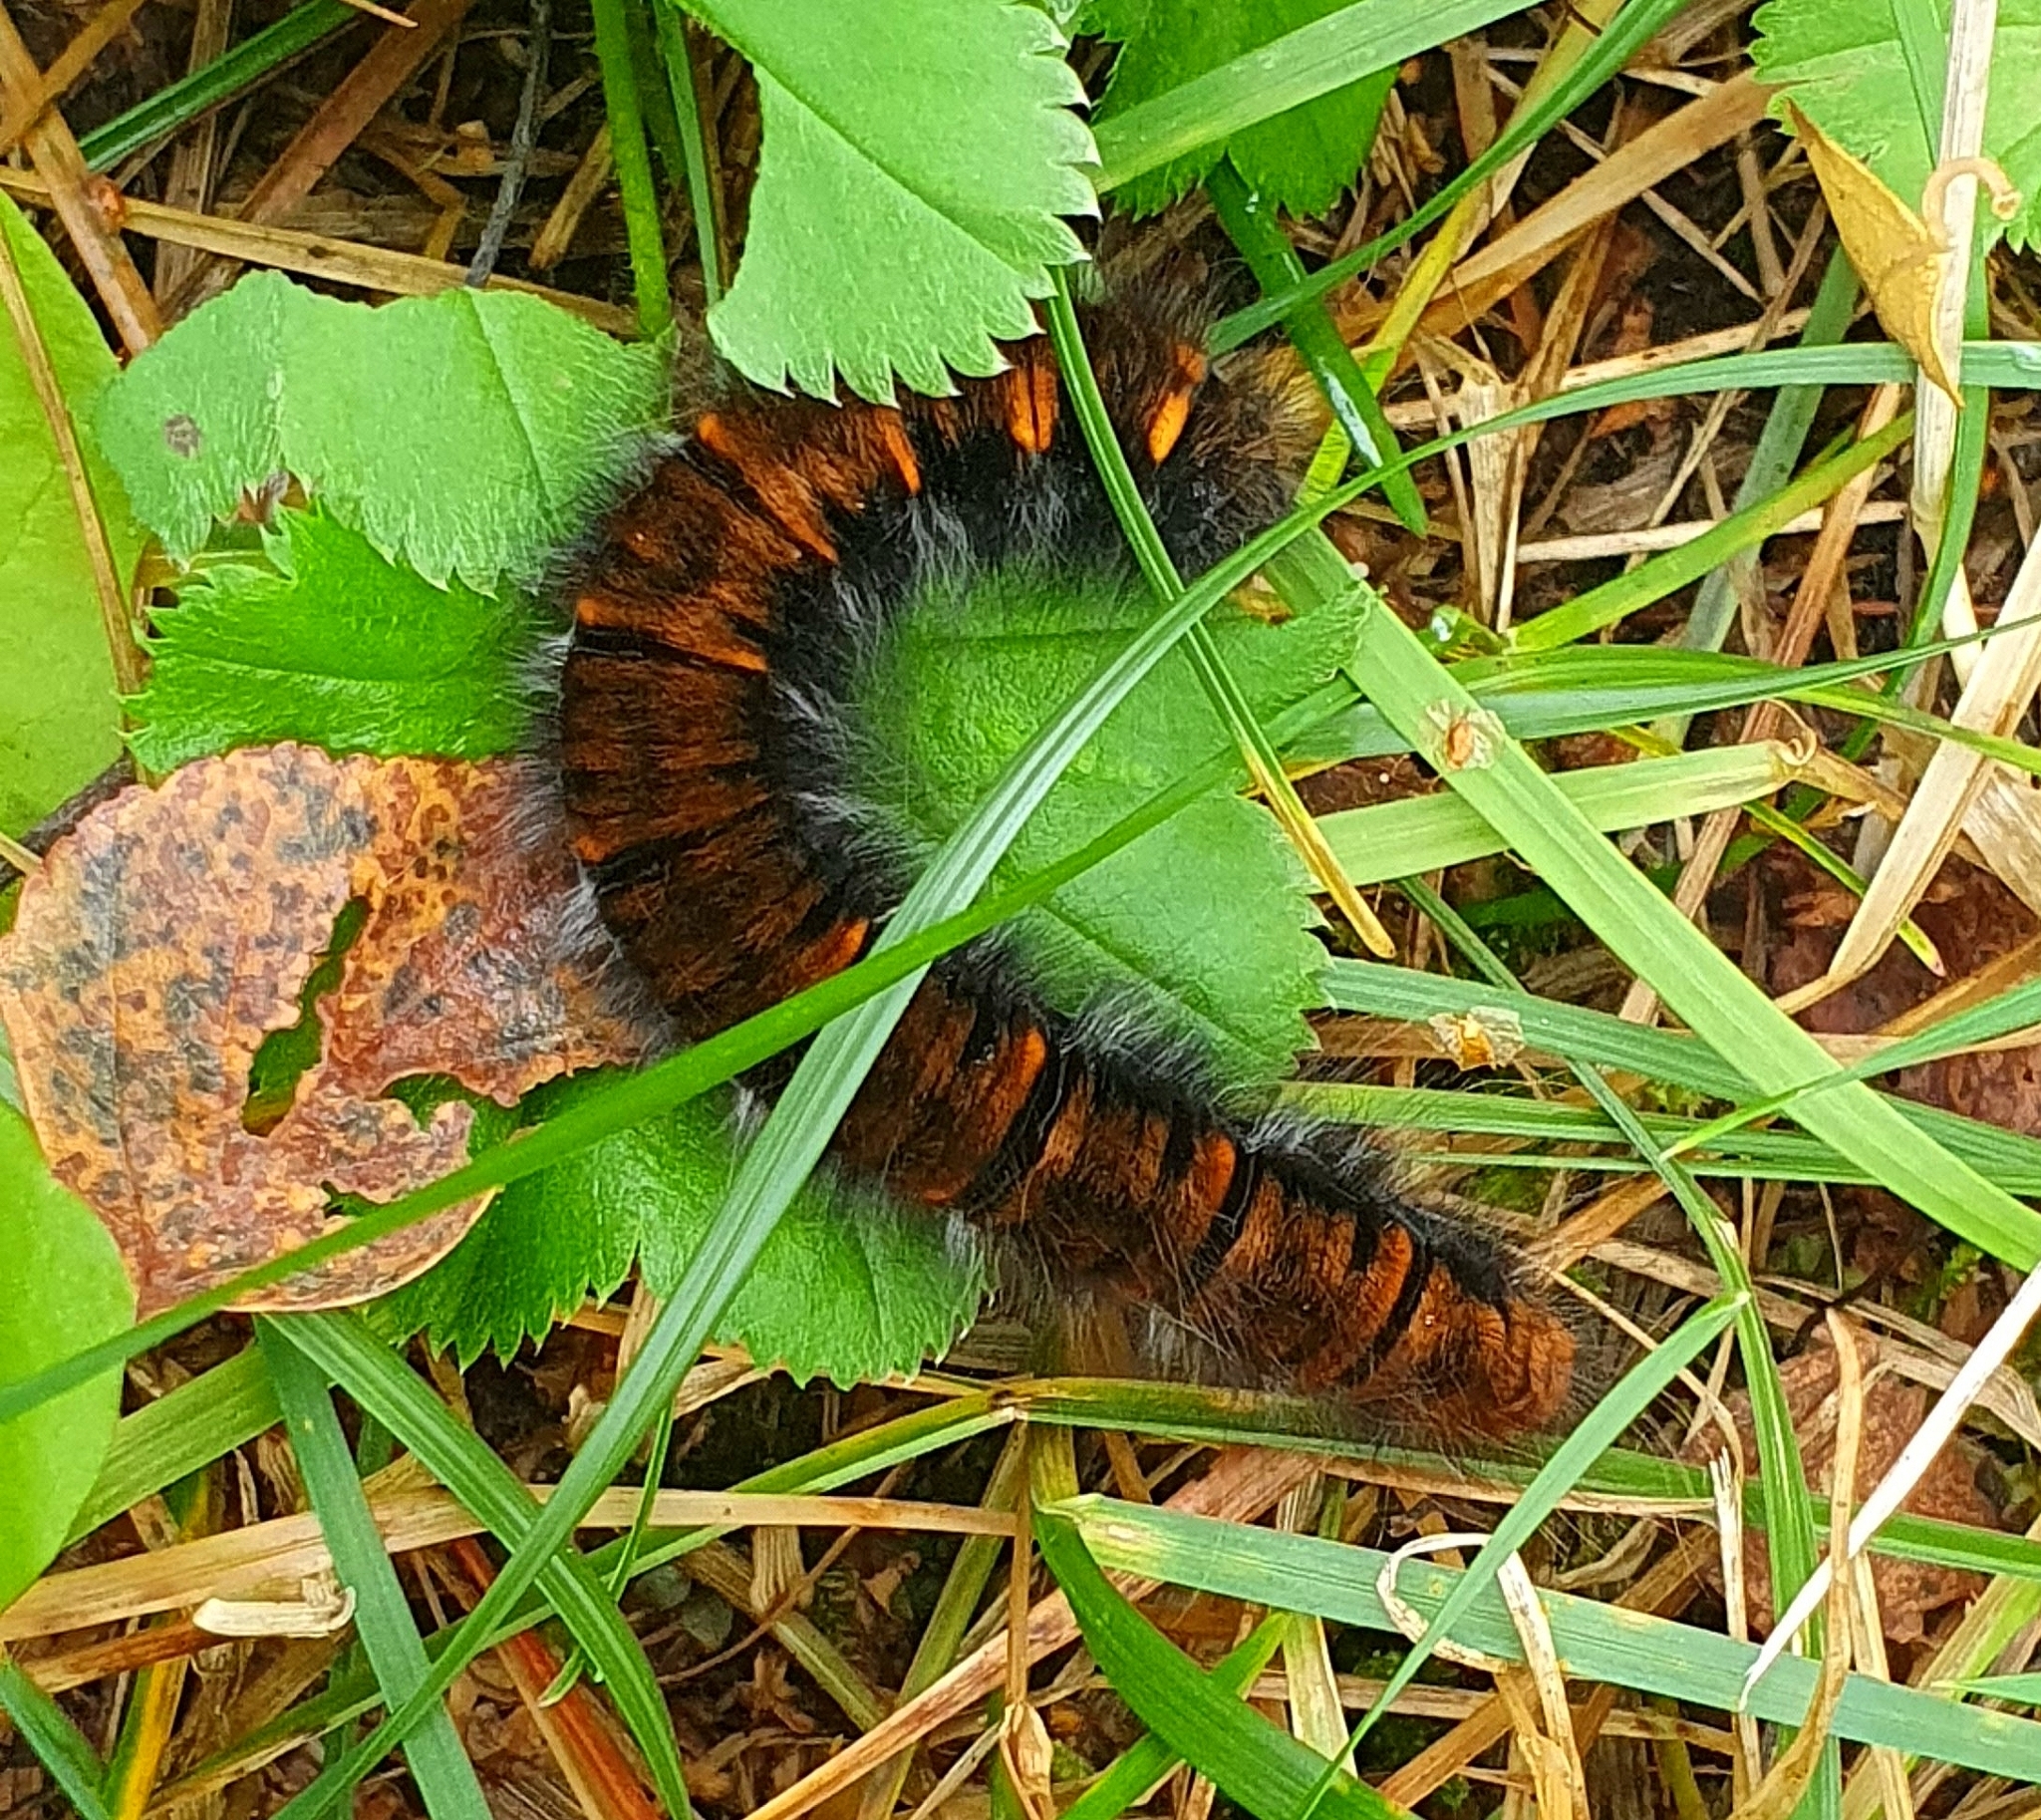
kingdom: Animalia
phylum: Arthropoda
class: Insecta
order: Lepidoptera
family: Lasiocampidae
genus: Macrothylacia
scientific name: Macrothylacia rubi
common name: Fox moth
